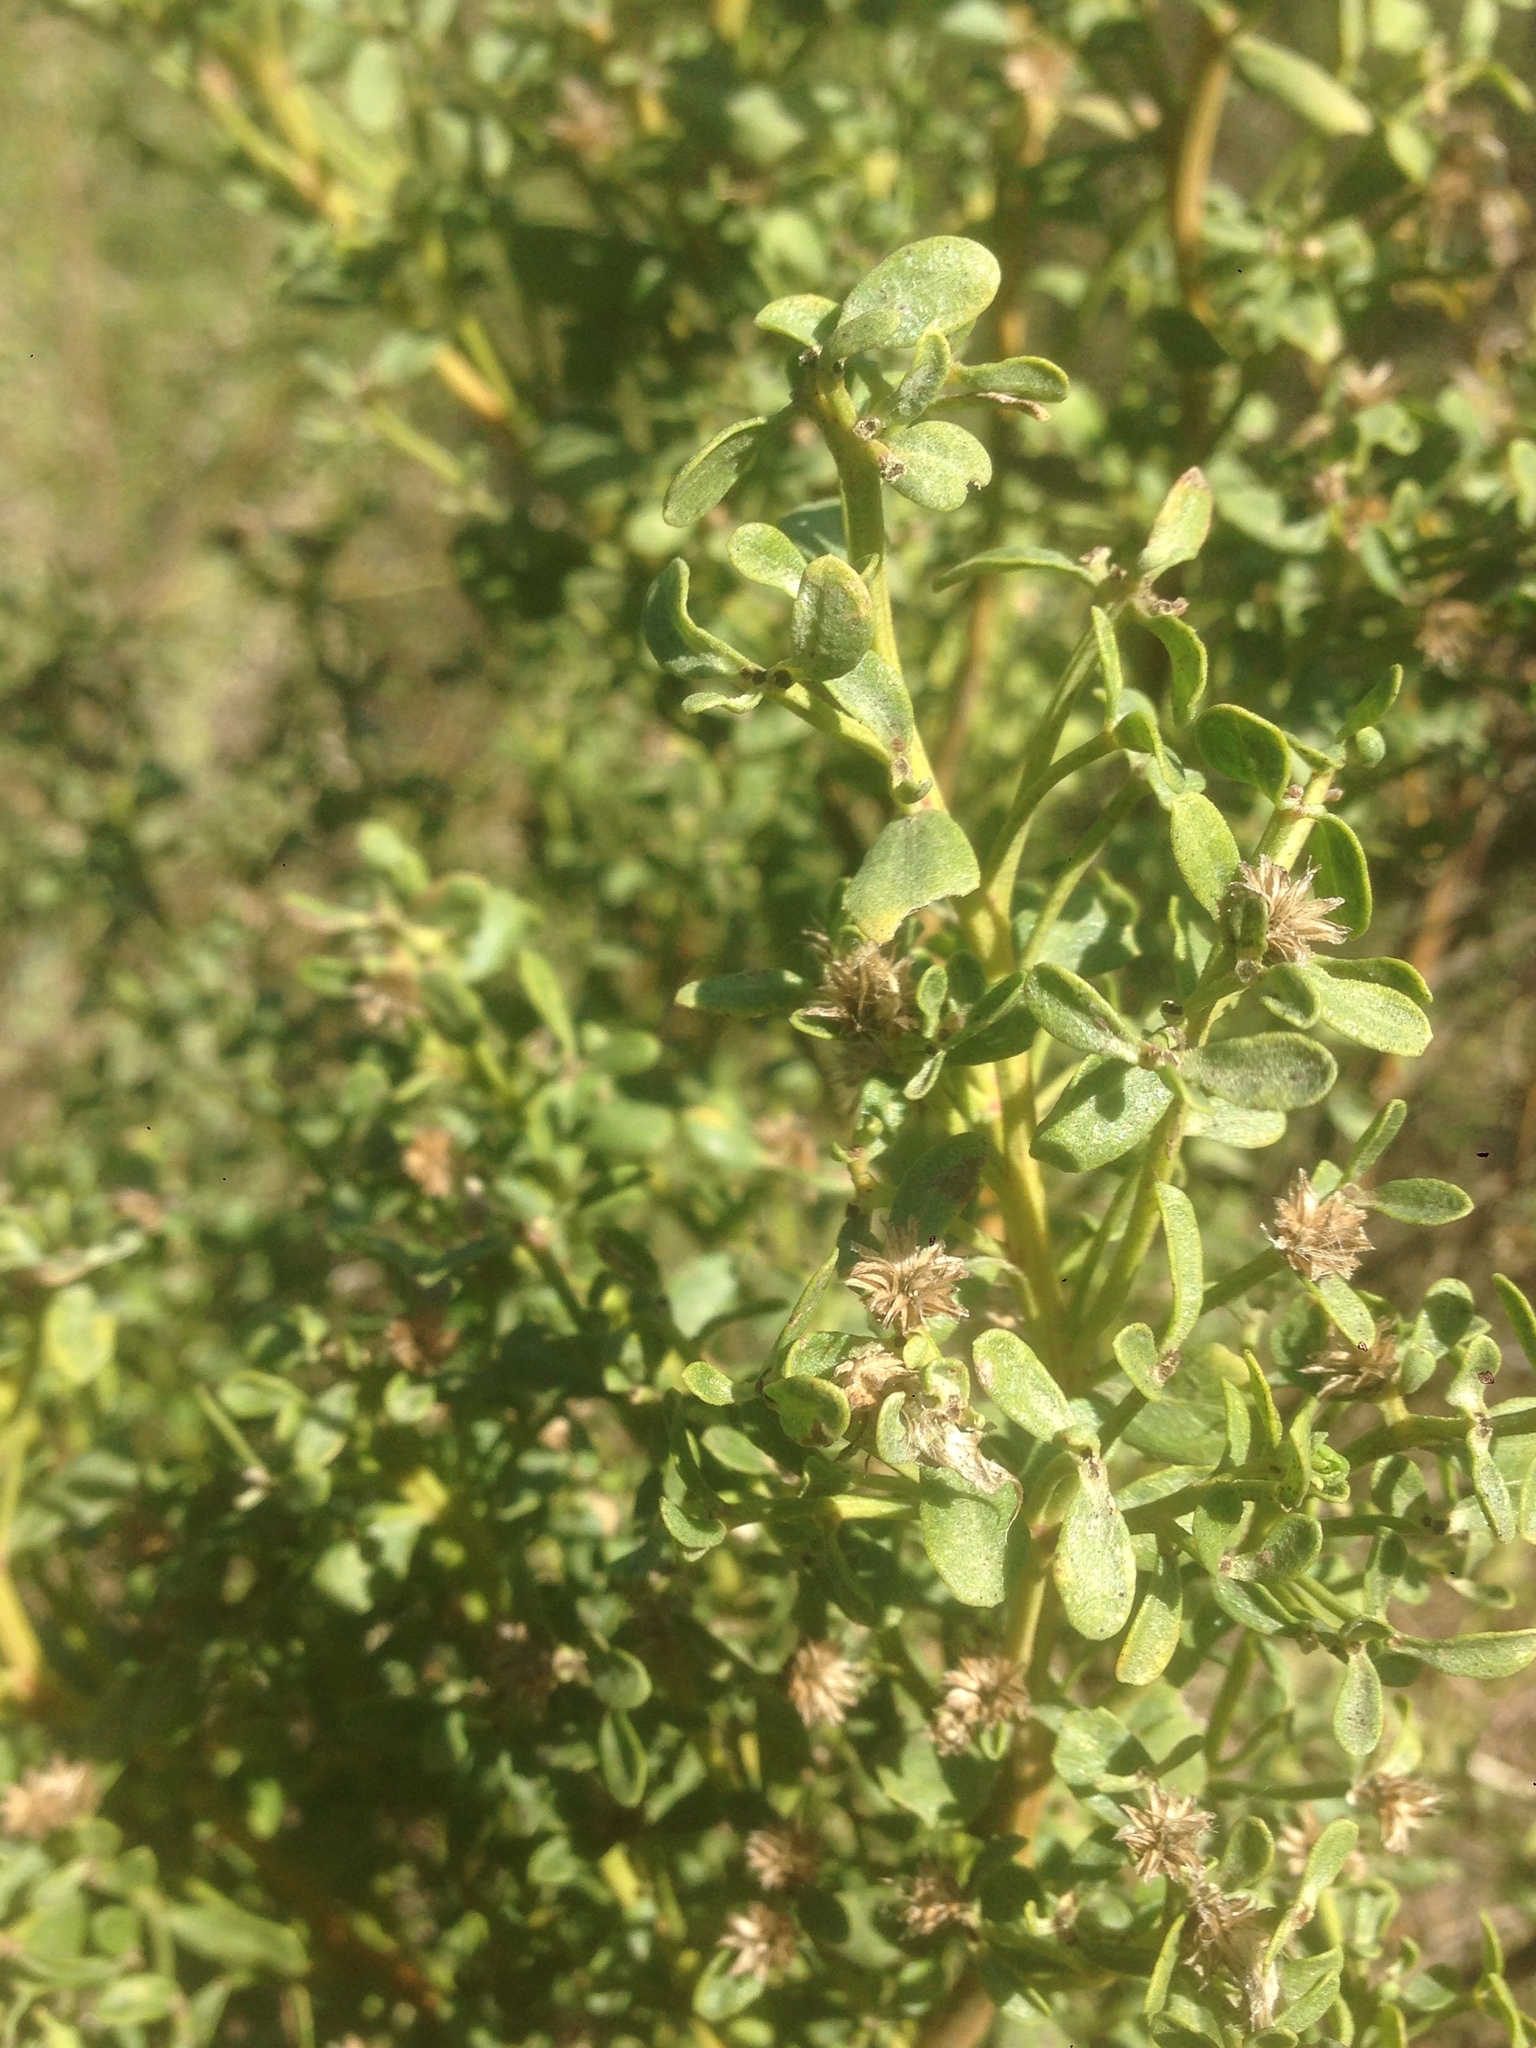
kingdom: Plantae
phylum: Tracheophyta
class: Magnoliopsida
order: Asterales
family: Asteraceae
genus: Baccharis
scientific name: Baccharis pilularis
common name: Coyotebrush
